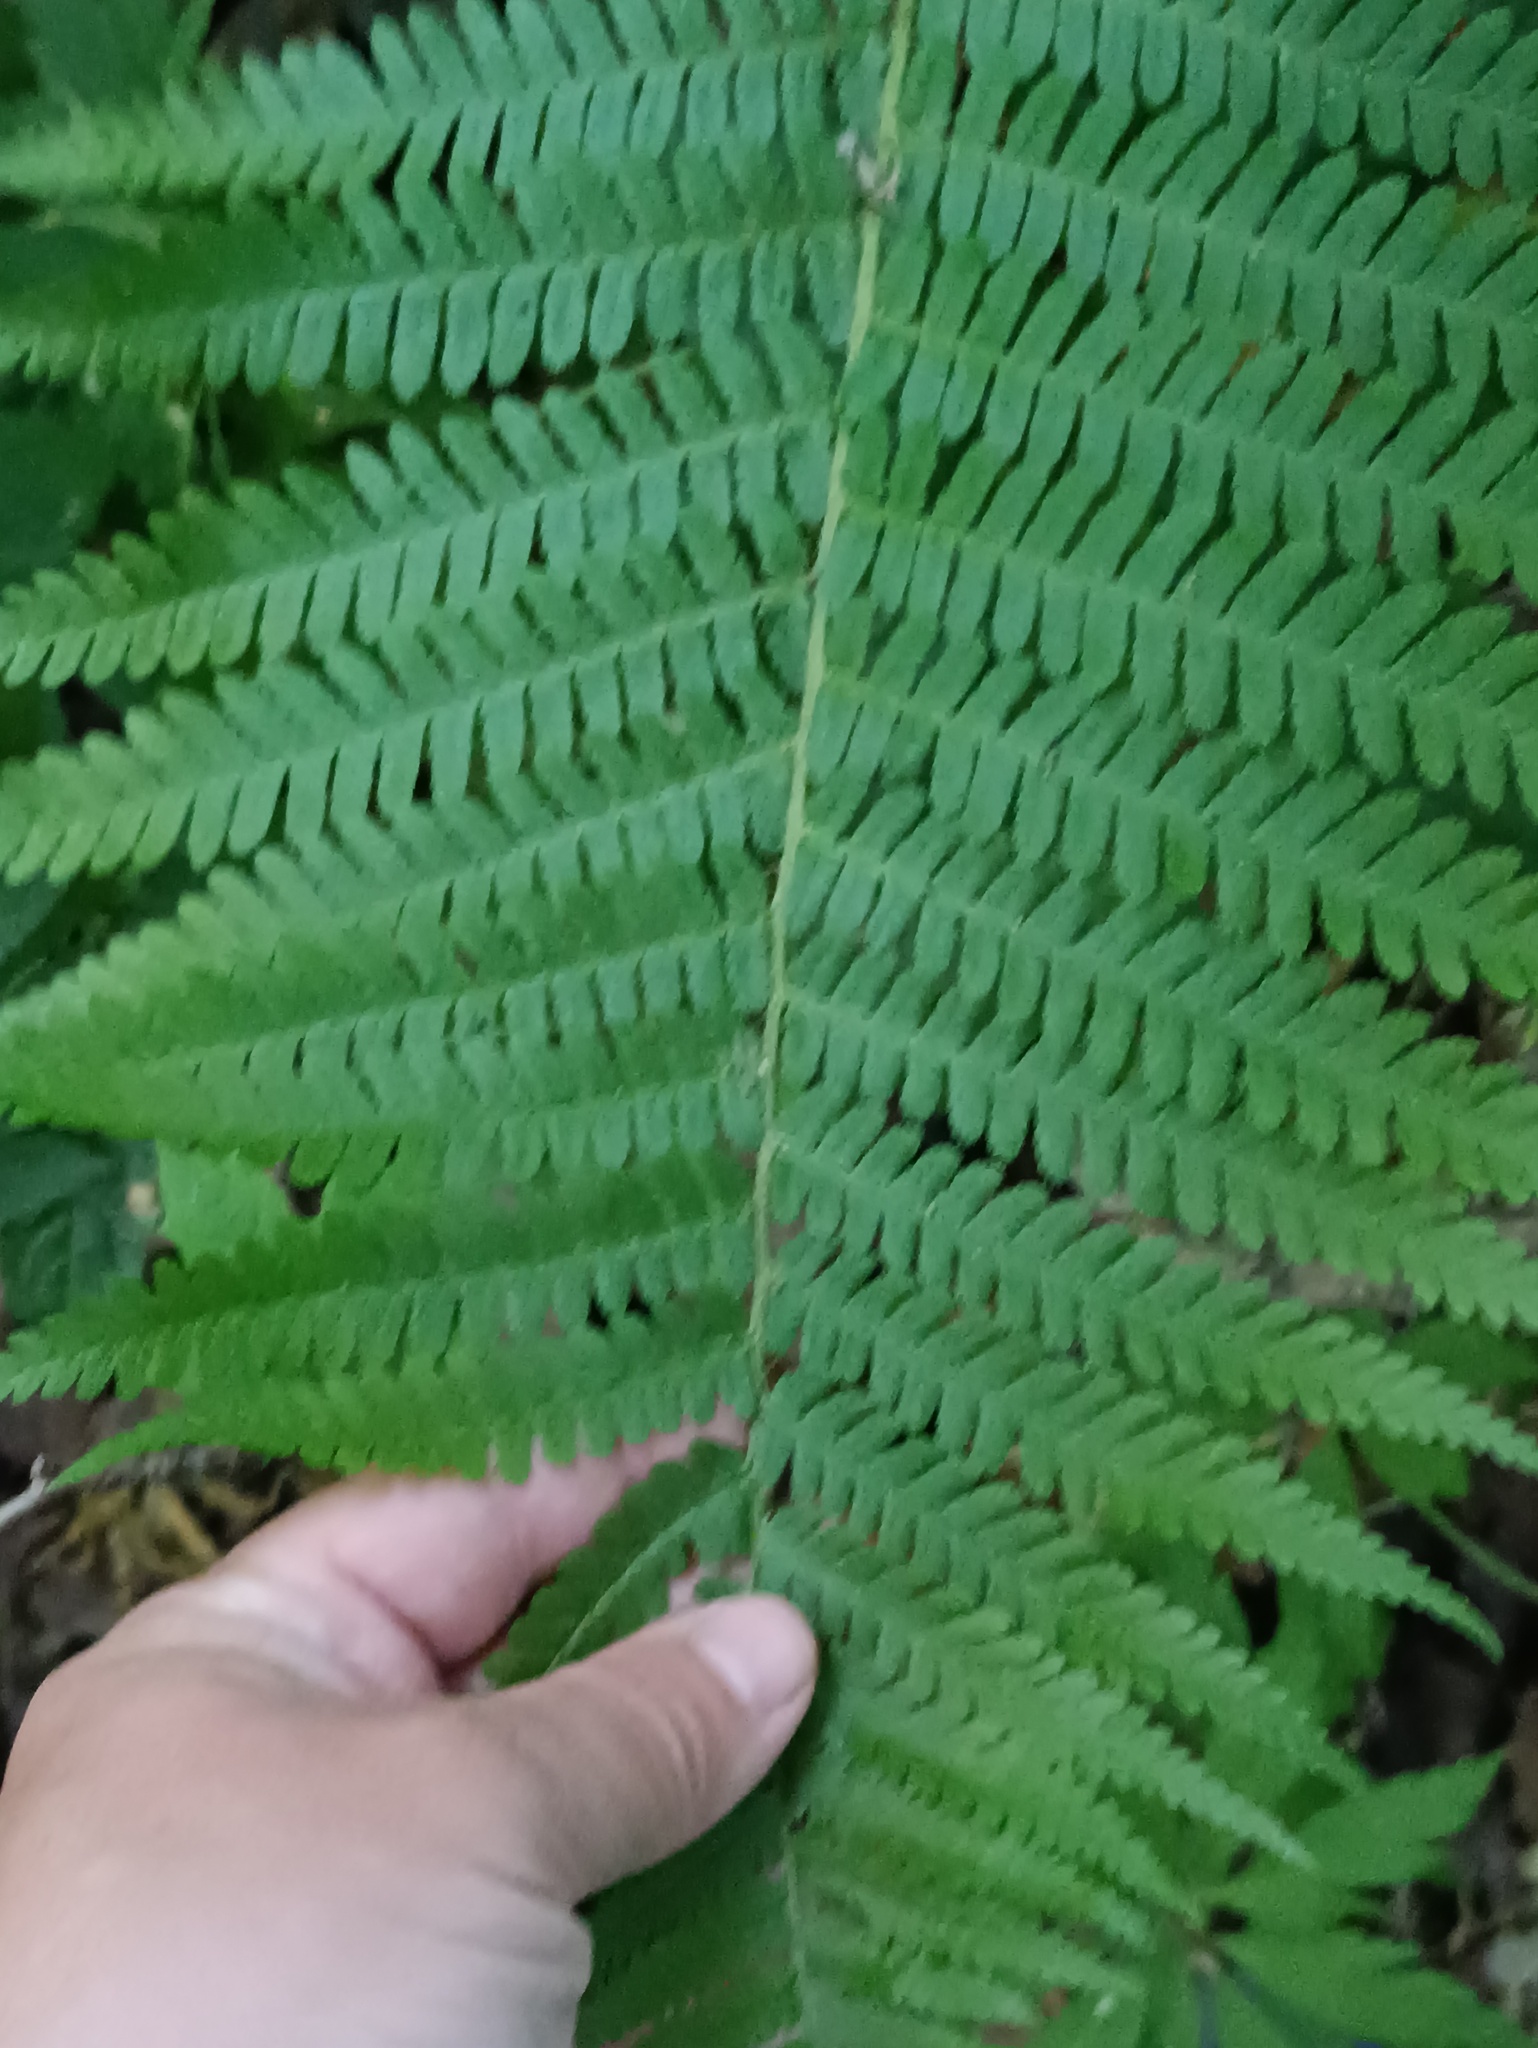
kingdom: Plantae
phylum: Tracheophyta
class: Polypodiopsida
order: Polypodiales
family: Dryopteridaceae
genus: Dryopteris
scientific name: Dryopteris filix-mas
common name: Male fern
